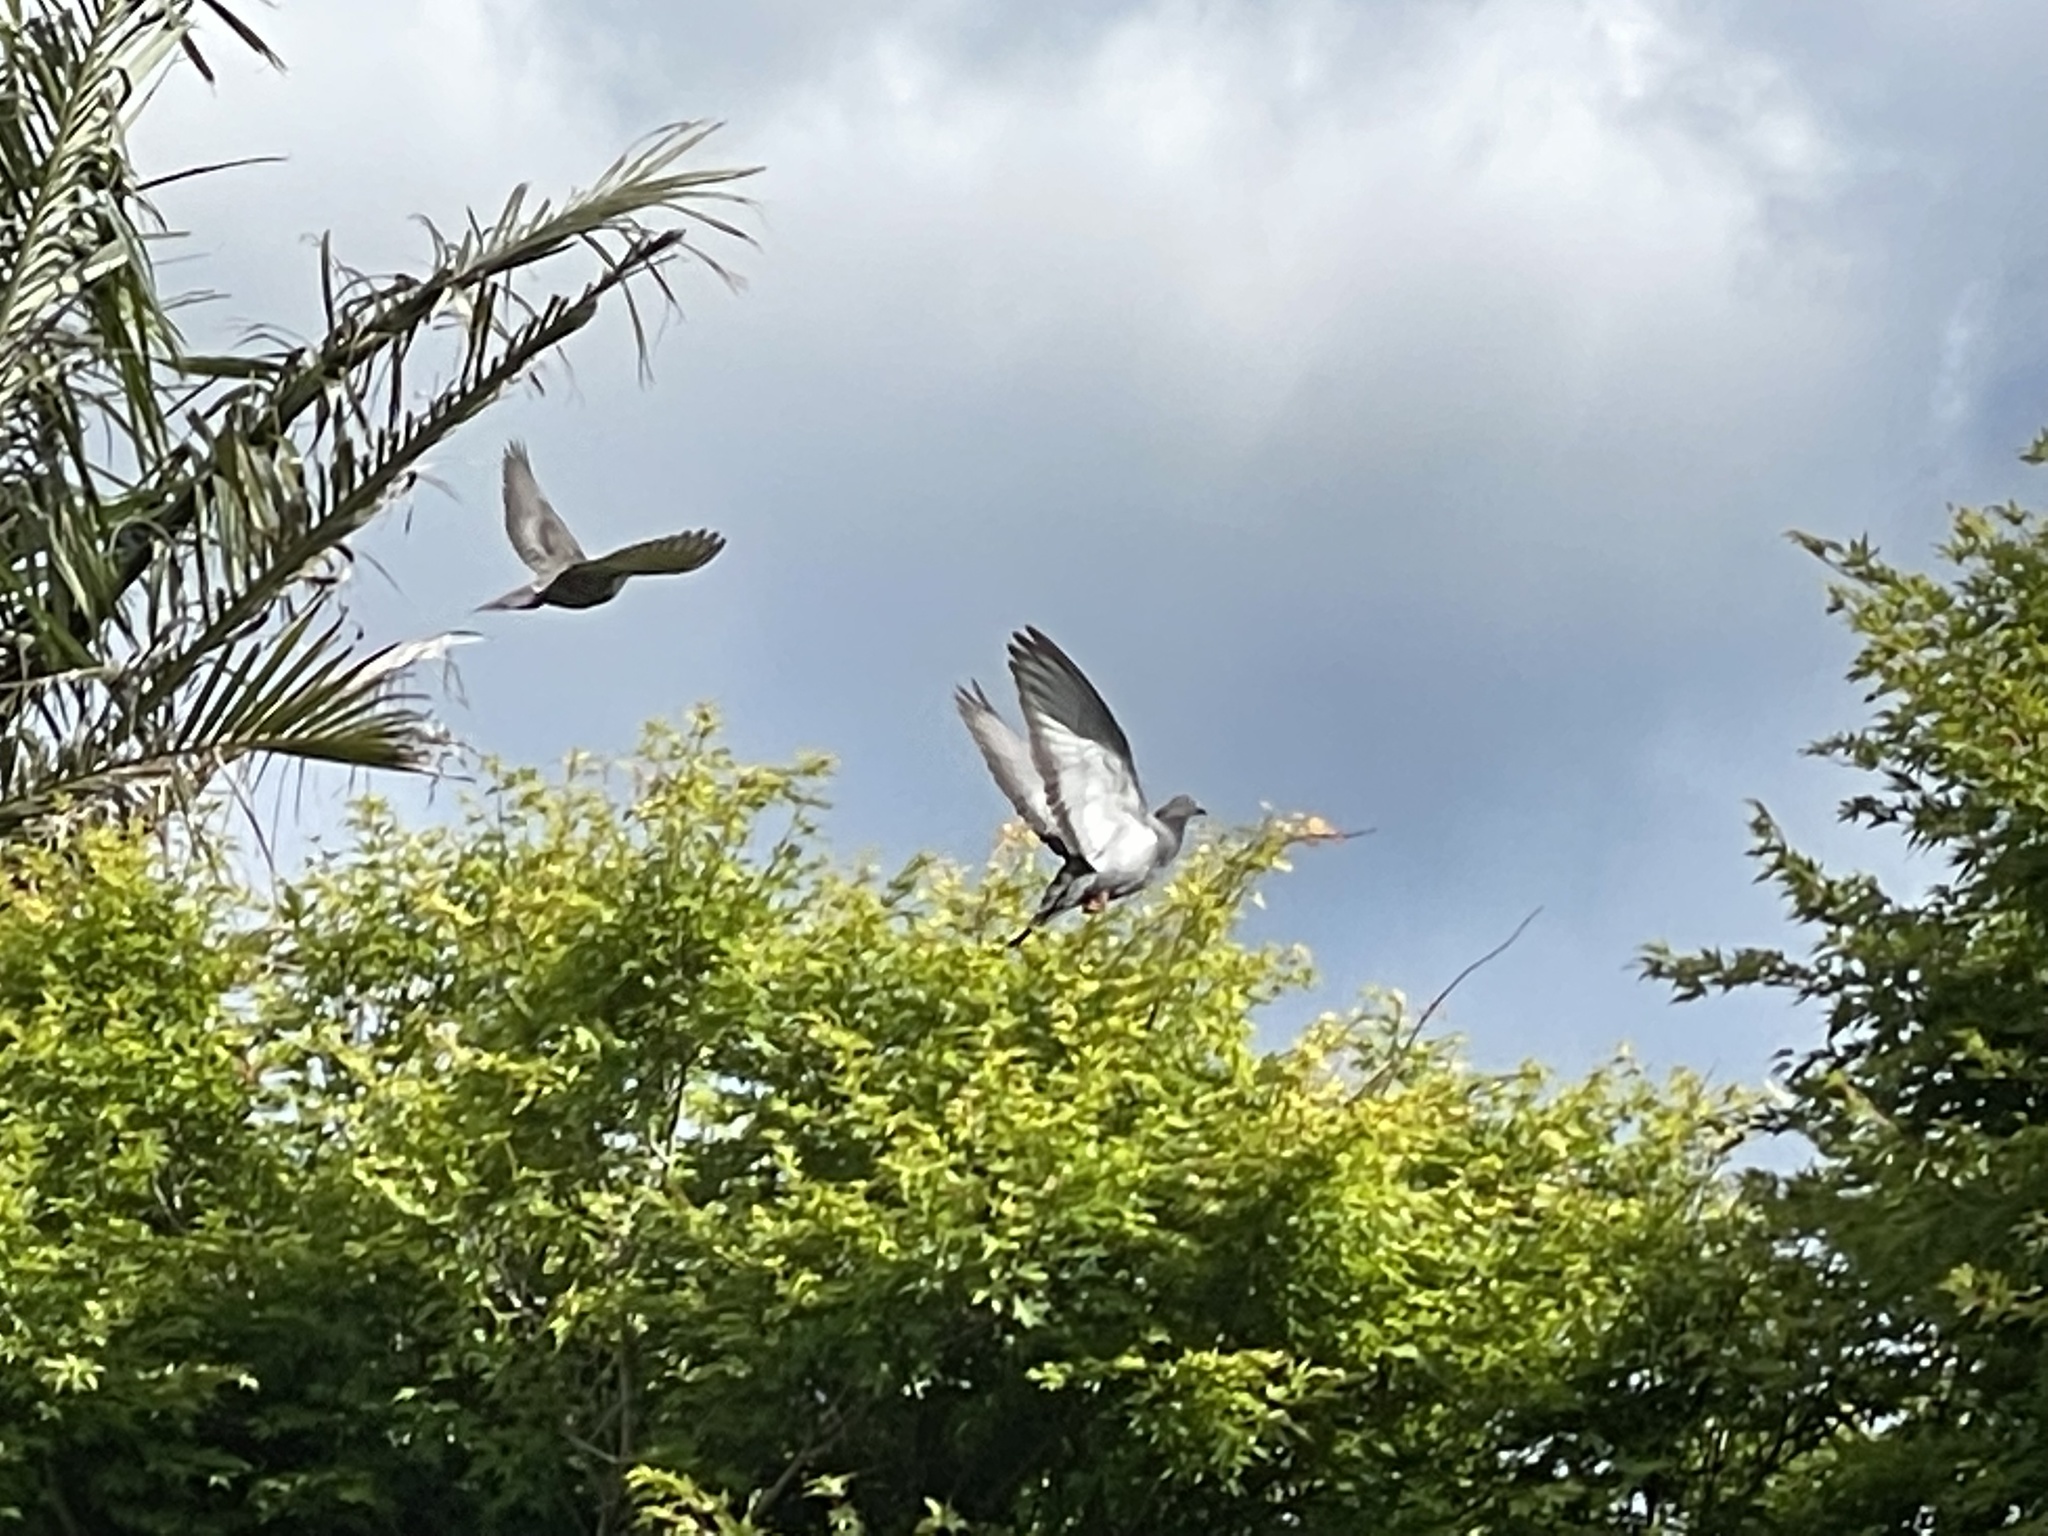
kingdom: Animalia
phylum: Chordata
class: Aves
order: Columbiformes
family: Columbidae
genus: Columba
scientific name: Columba livia
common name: Rock pigeon
